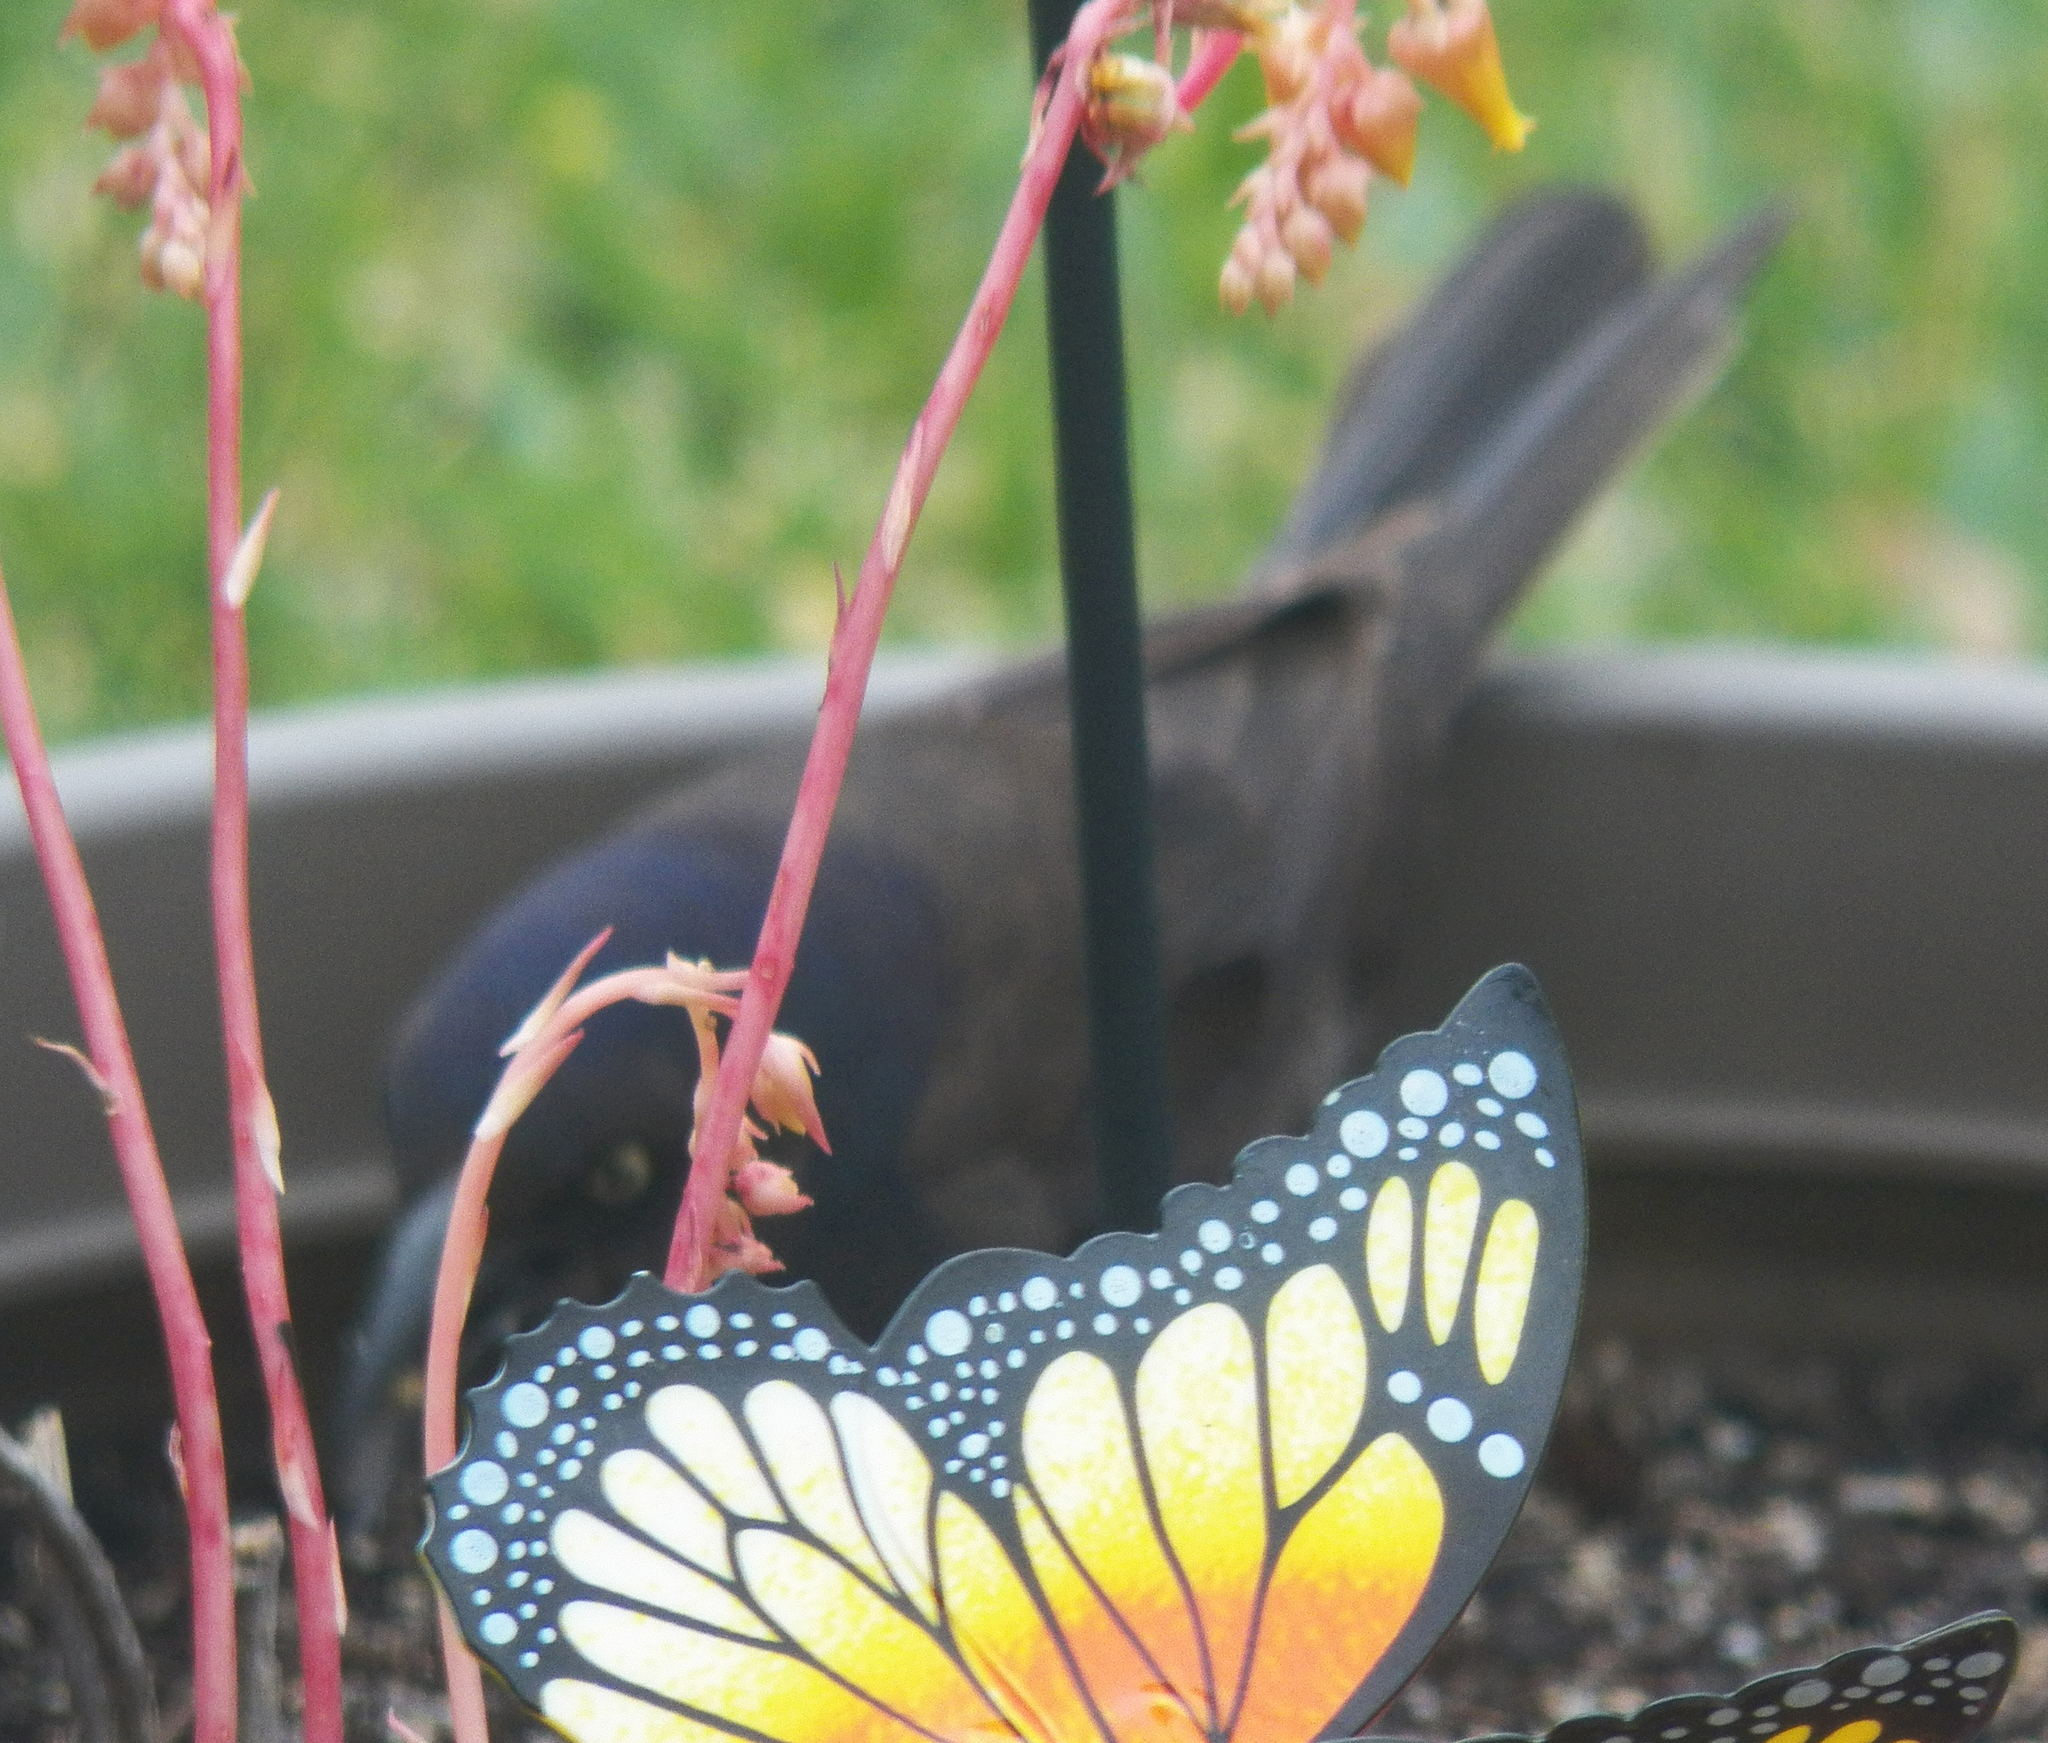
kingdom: Animalia
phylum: Chordata
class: Aves
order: Passeriformes
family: Icteridae
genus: Quiscalus
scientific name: Quiscalus quiscula
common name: Common grackle
